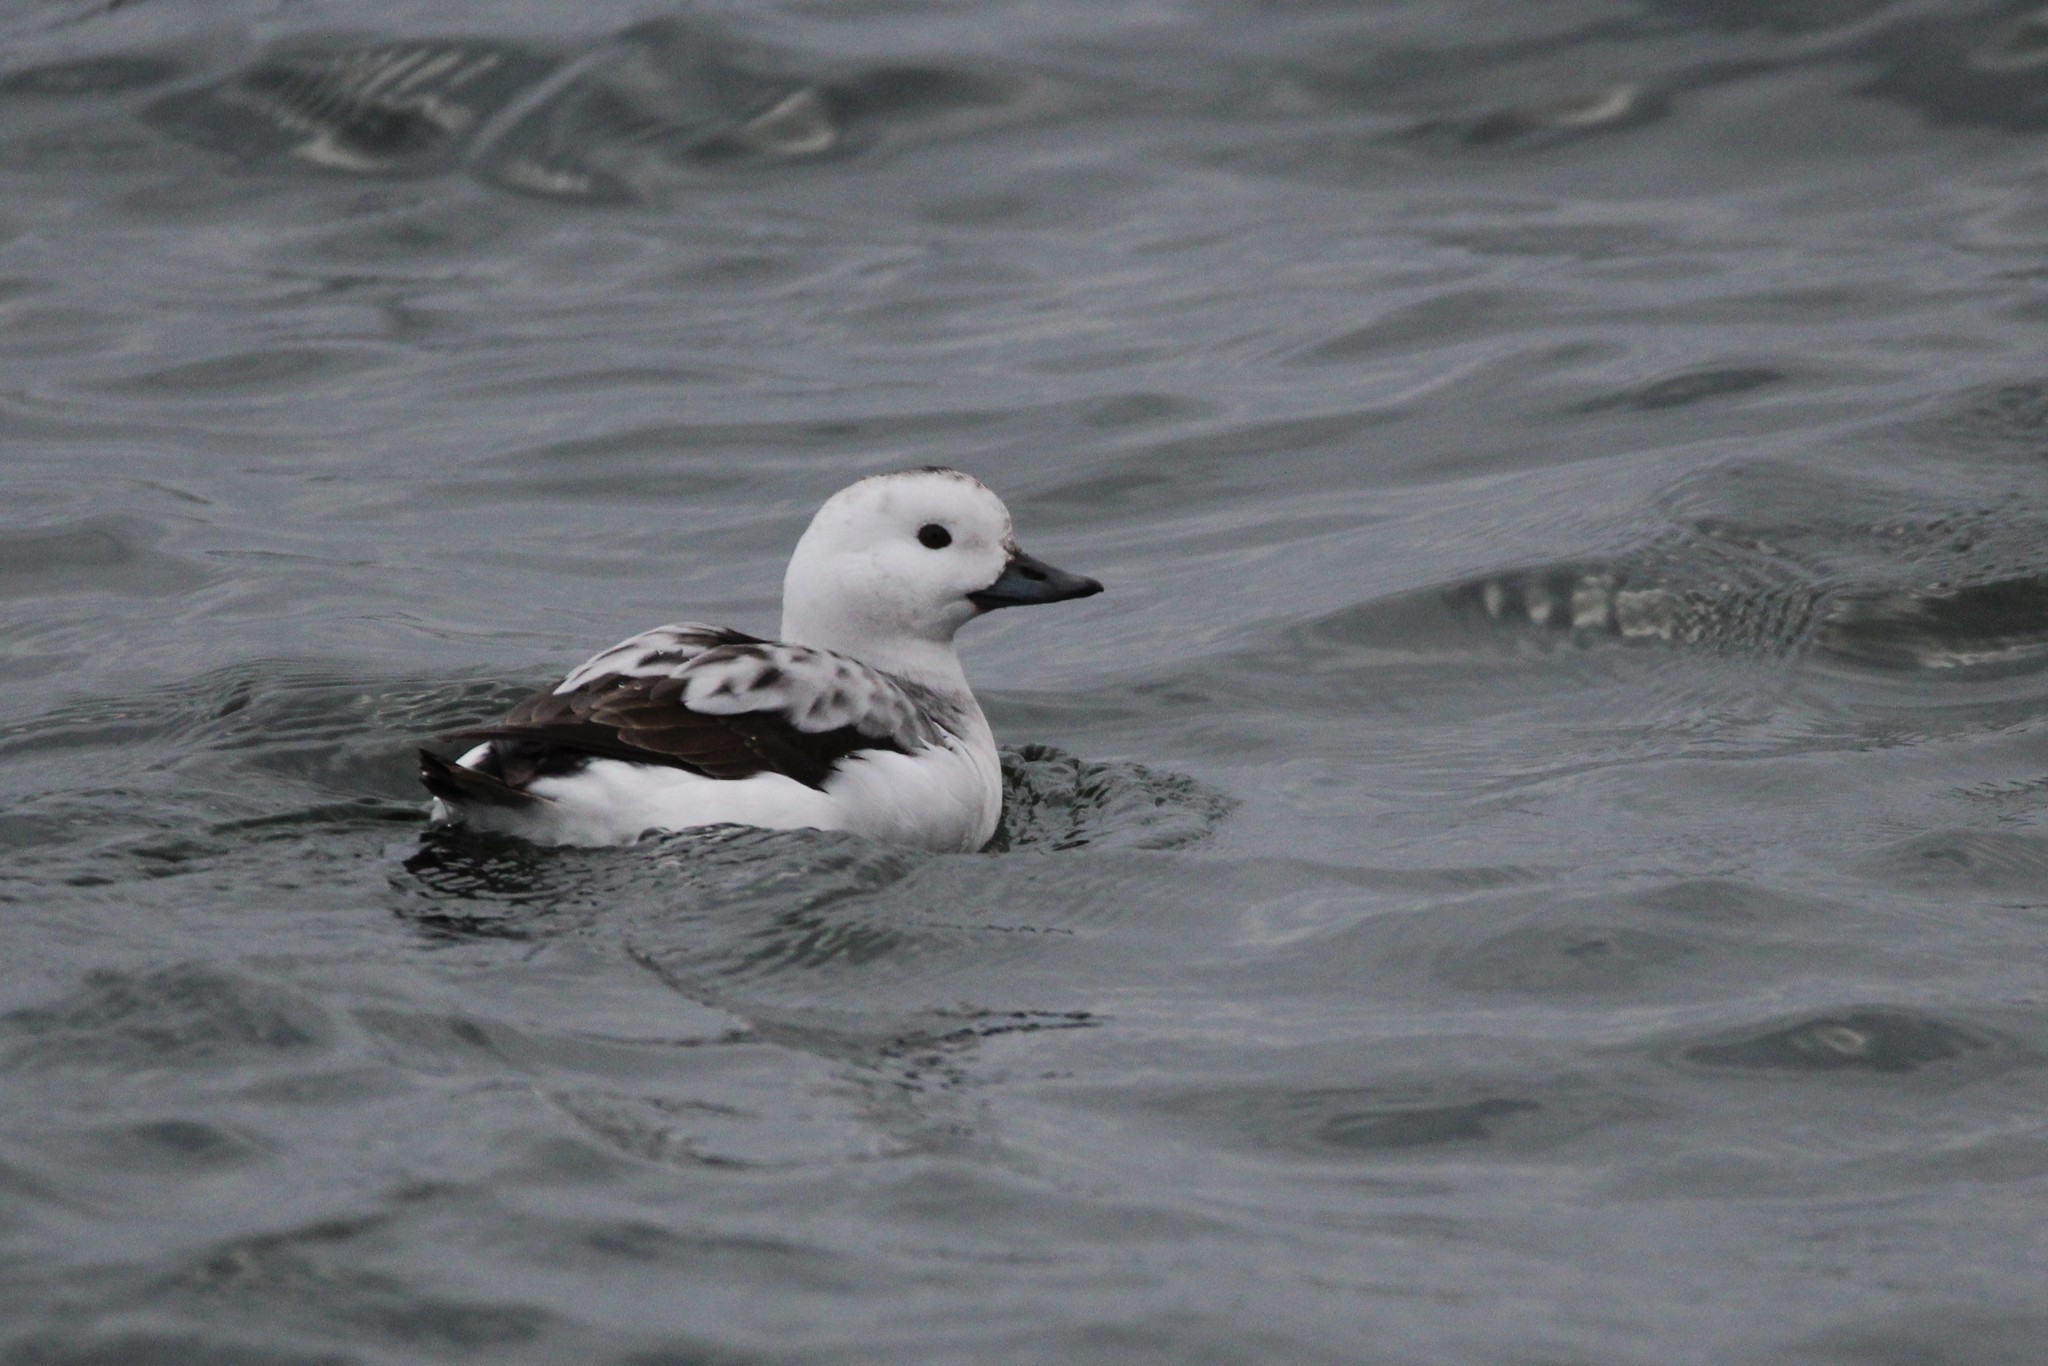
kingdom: Animalia
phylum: Chordata
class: Aves
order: Anseriformes
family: Anatidae
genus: Clangula
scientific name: Clangula hyemalis
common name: Long-tailed duck
